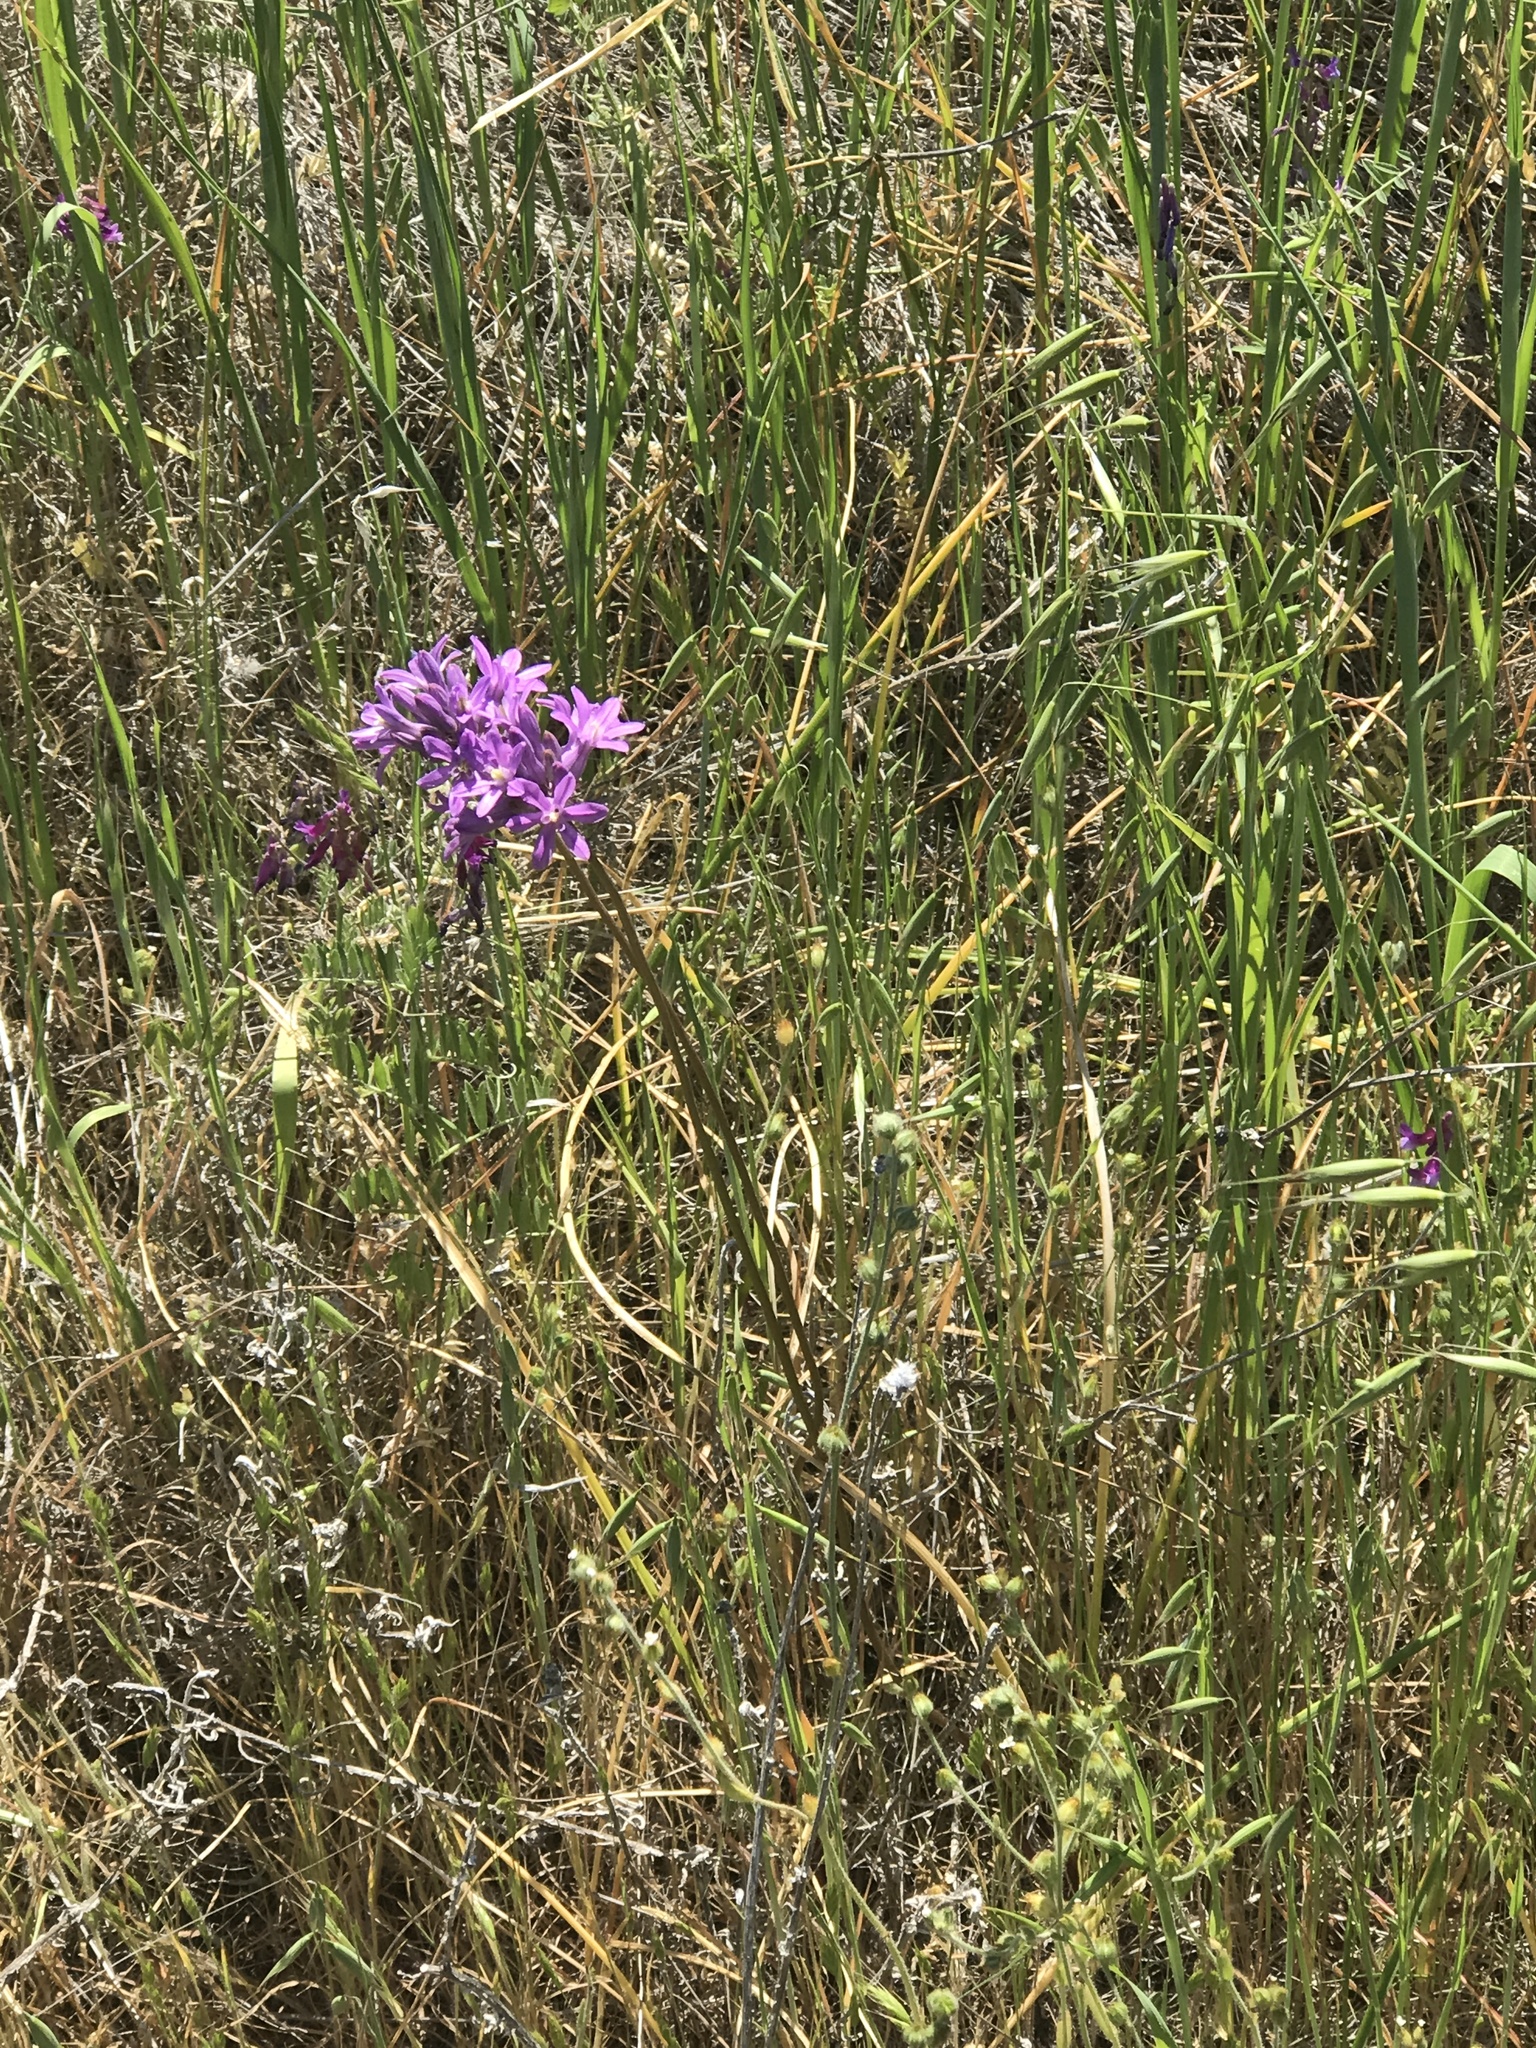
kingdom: Plantae
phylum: Tracheophyta
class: Liliopsida
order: Asparagales
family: Asparagaceae
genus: Dichelostemma
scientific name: Dichelostemma multiflorum
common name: Round-tooth ookow
